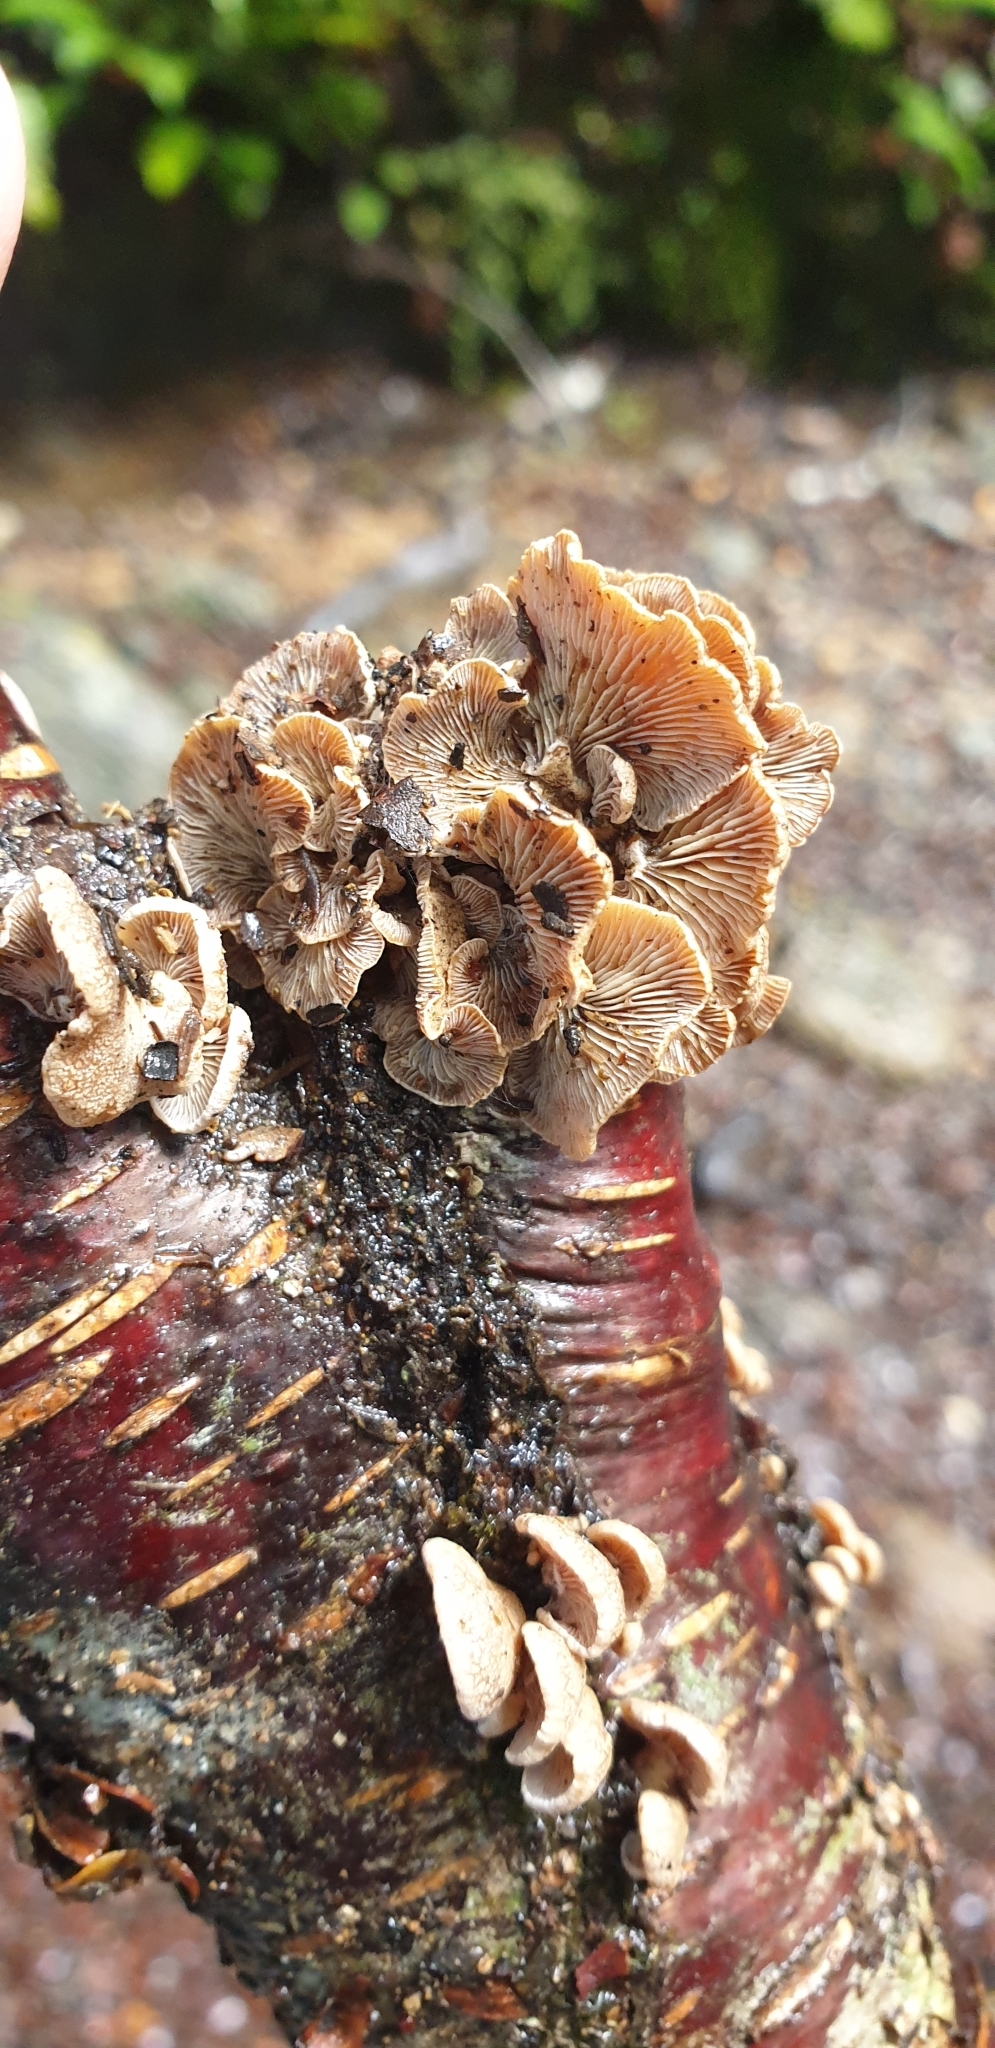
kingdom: Fungi
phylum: Basidiomycota
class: Agaricomycetes
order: Agaricales
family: Mycenaceae
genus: Panellus
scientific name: Panellus stipticus
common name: Bitter oysterling
